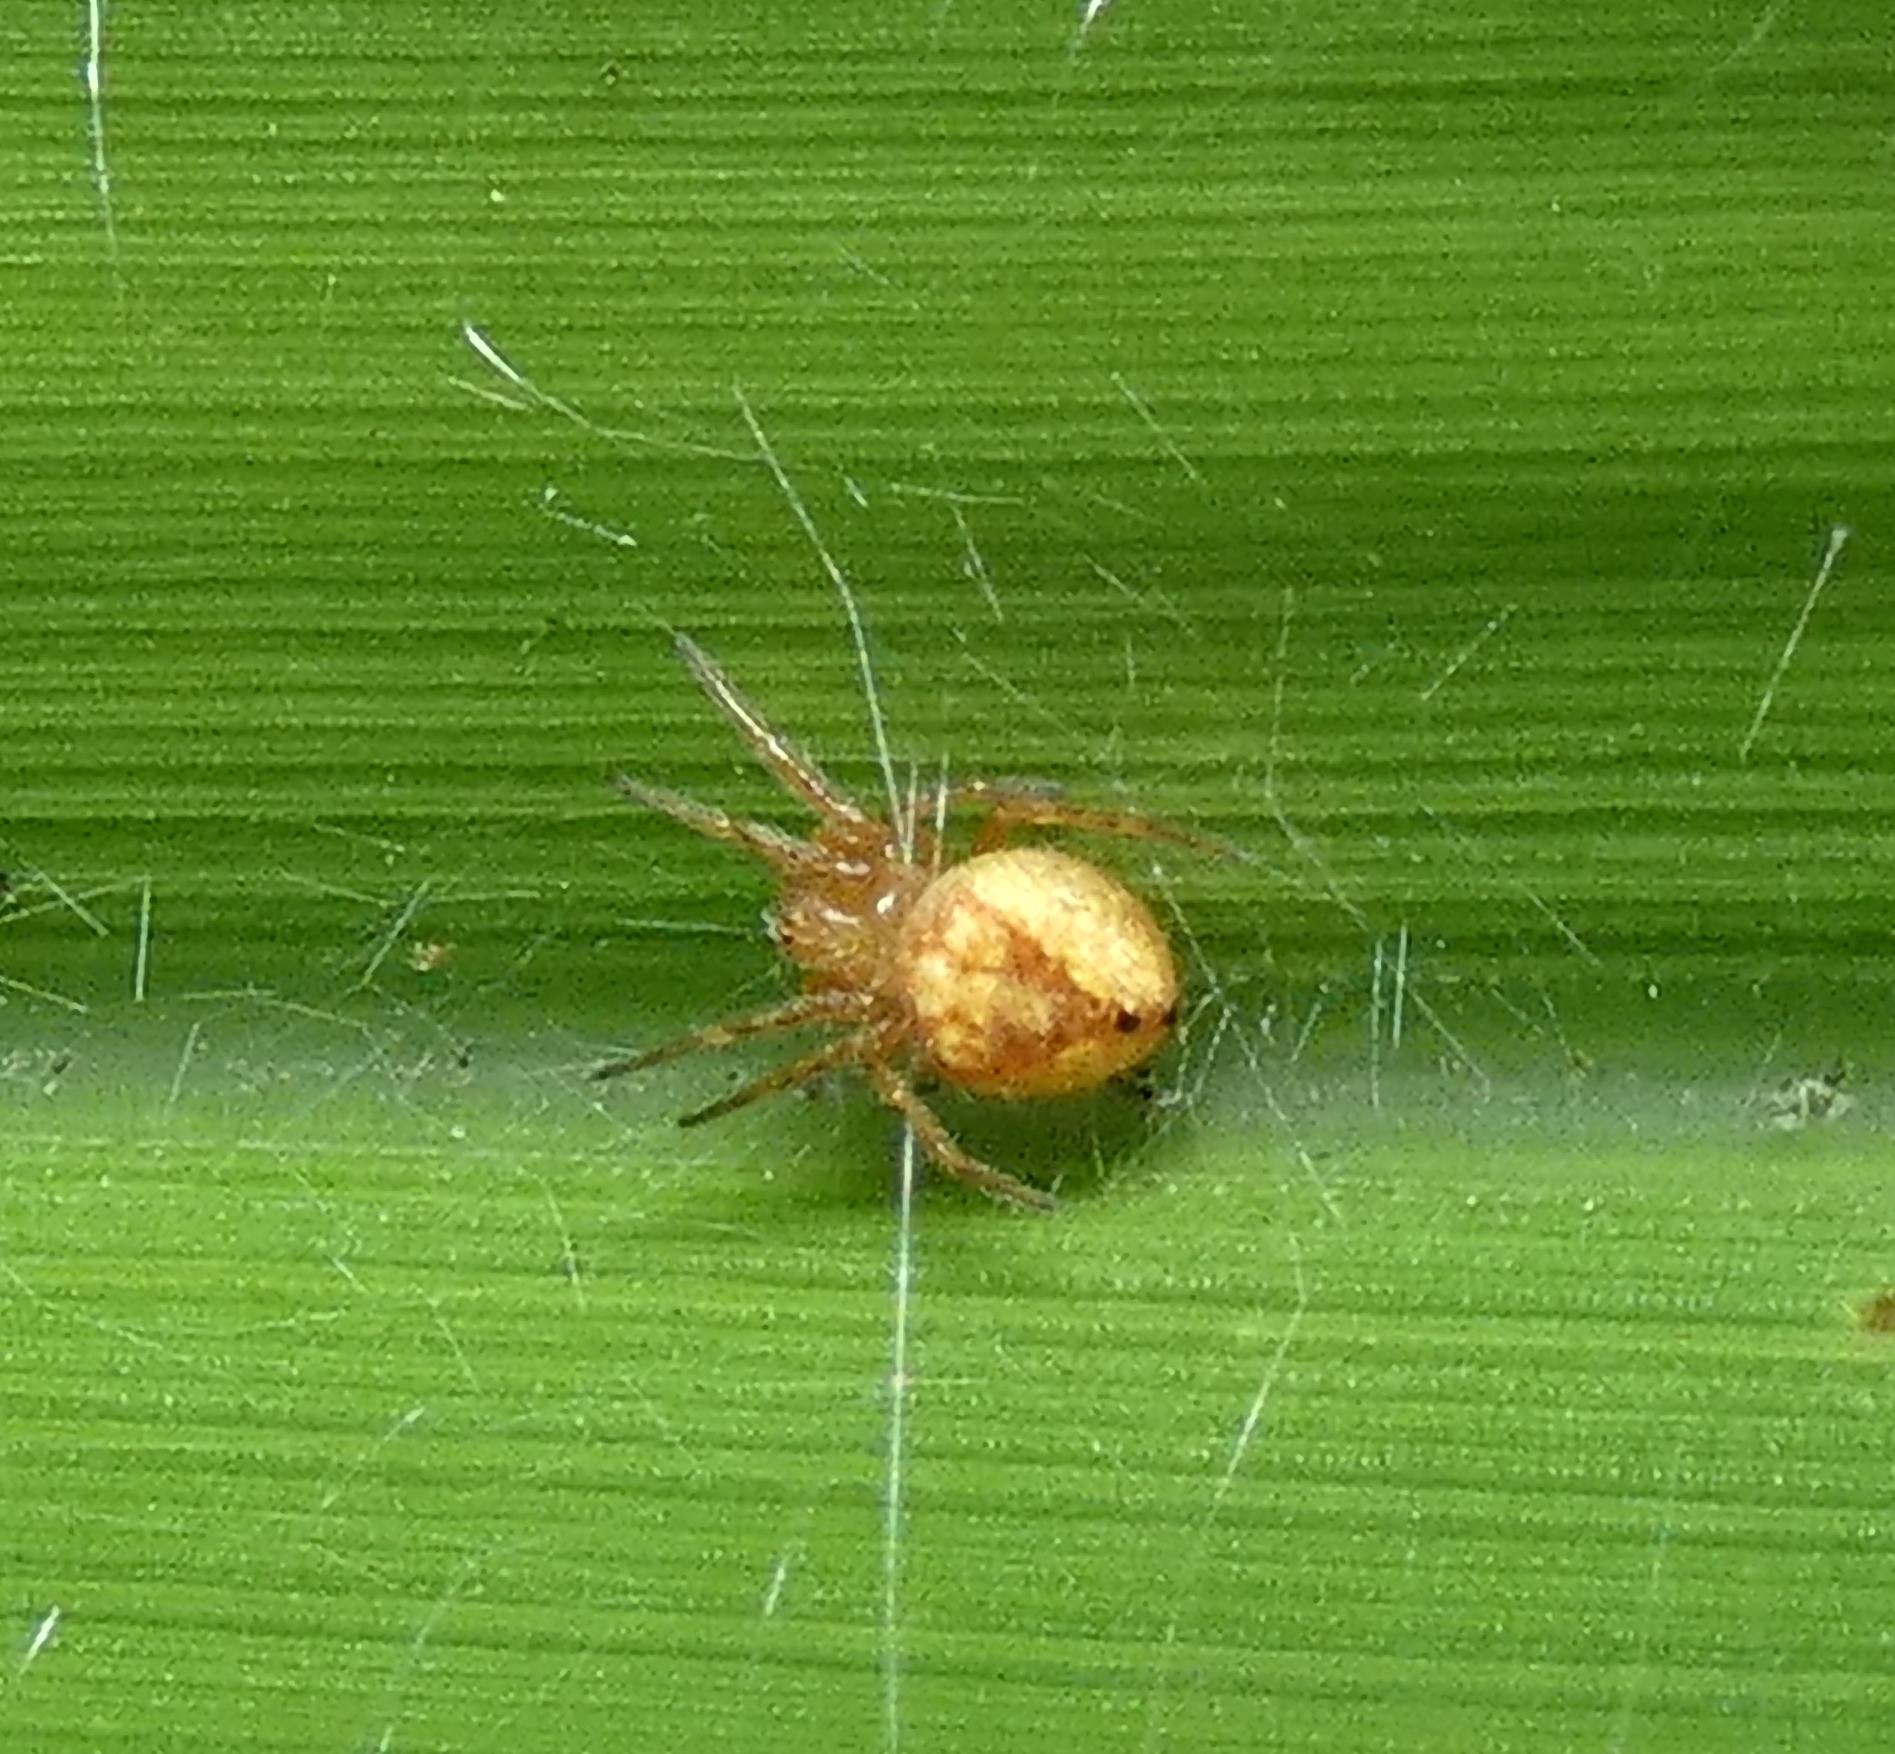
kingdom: Animalia
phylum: Arthropoda
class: Arachnida
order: Araneae
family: Araneidae
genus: Eriophora
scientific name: Eriophora edax
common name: Orb weavers
